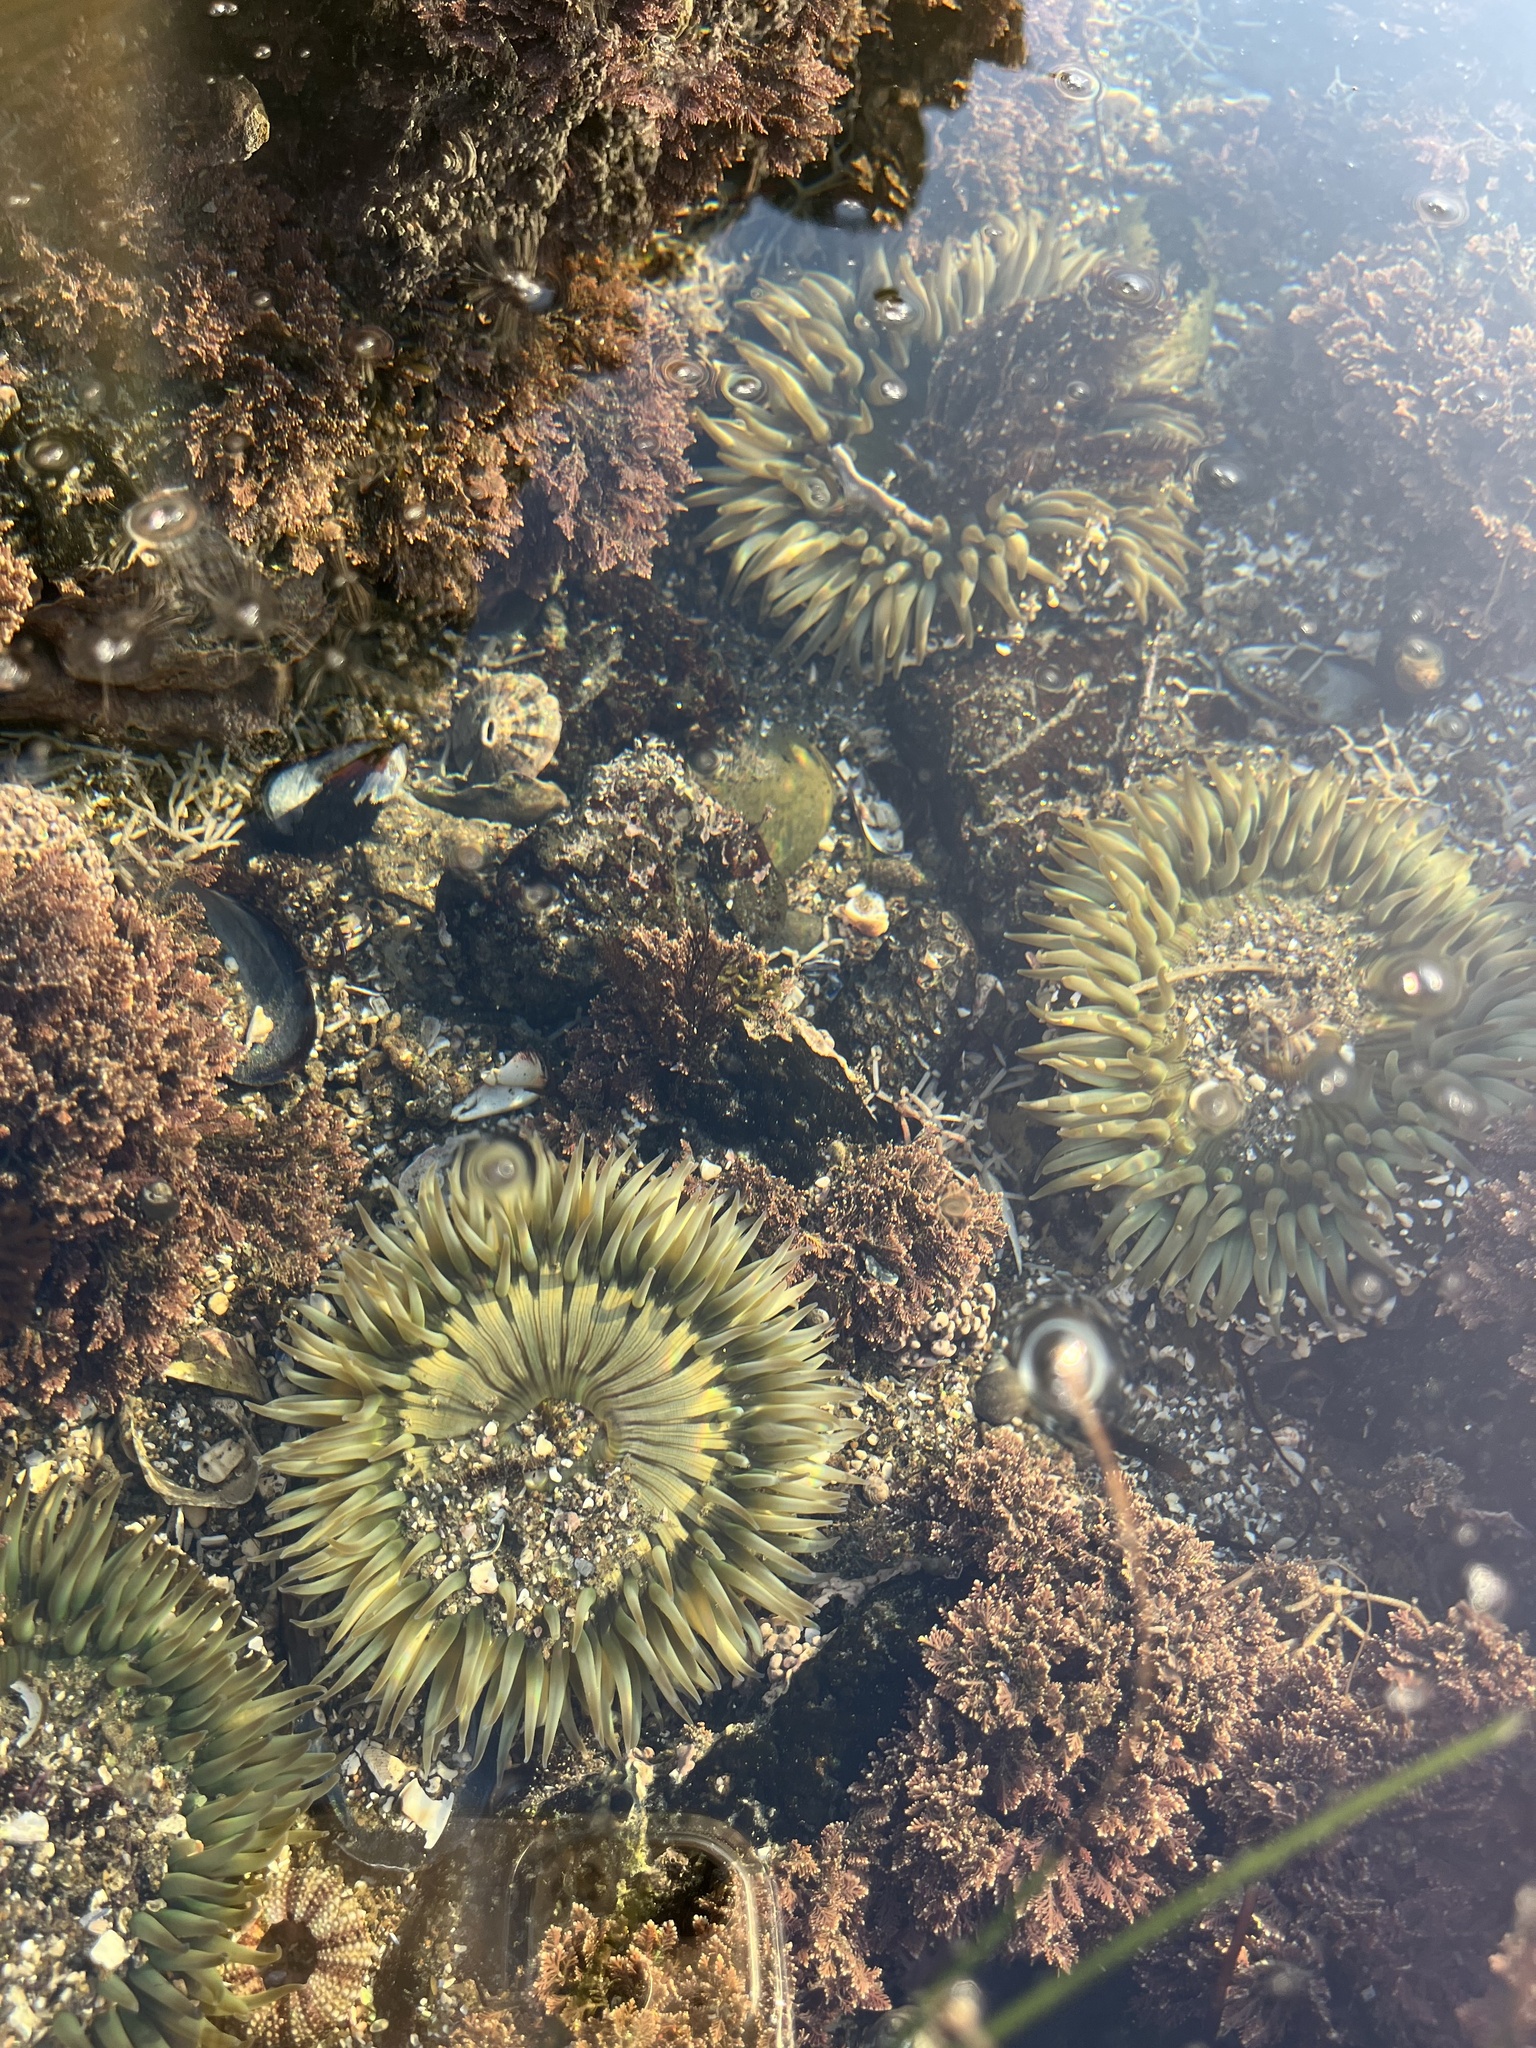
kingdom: Animalia
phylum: Cnidaria
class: Anthozoa
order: Actiniaria
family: Actiniidae
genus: Anthopleura
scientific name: Anthopleura sola
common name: Sun anemone
